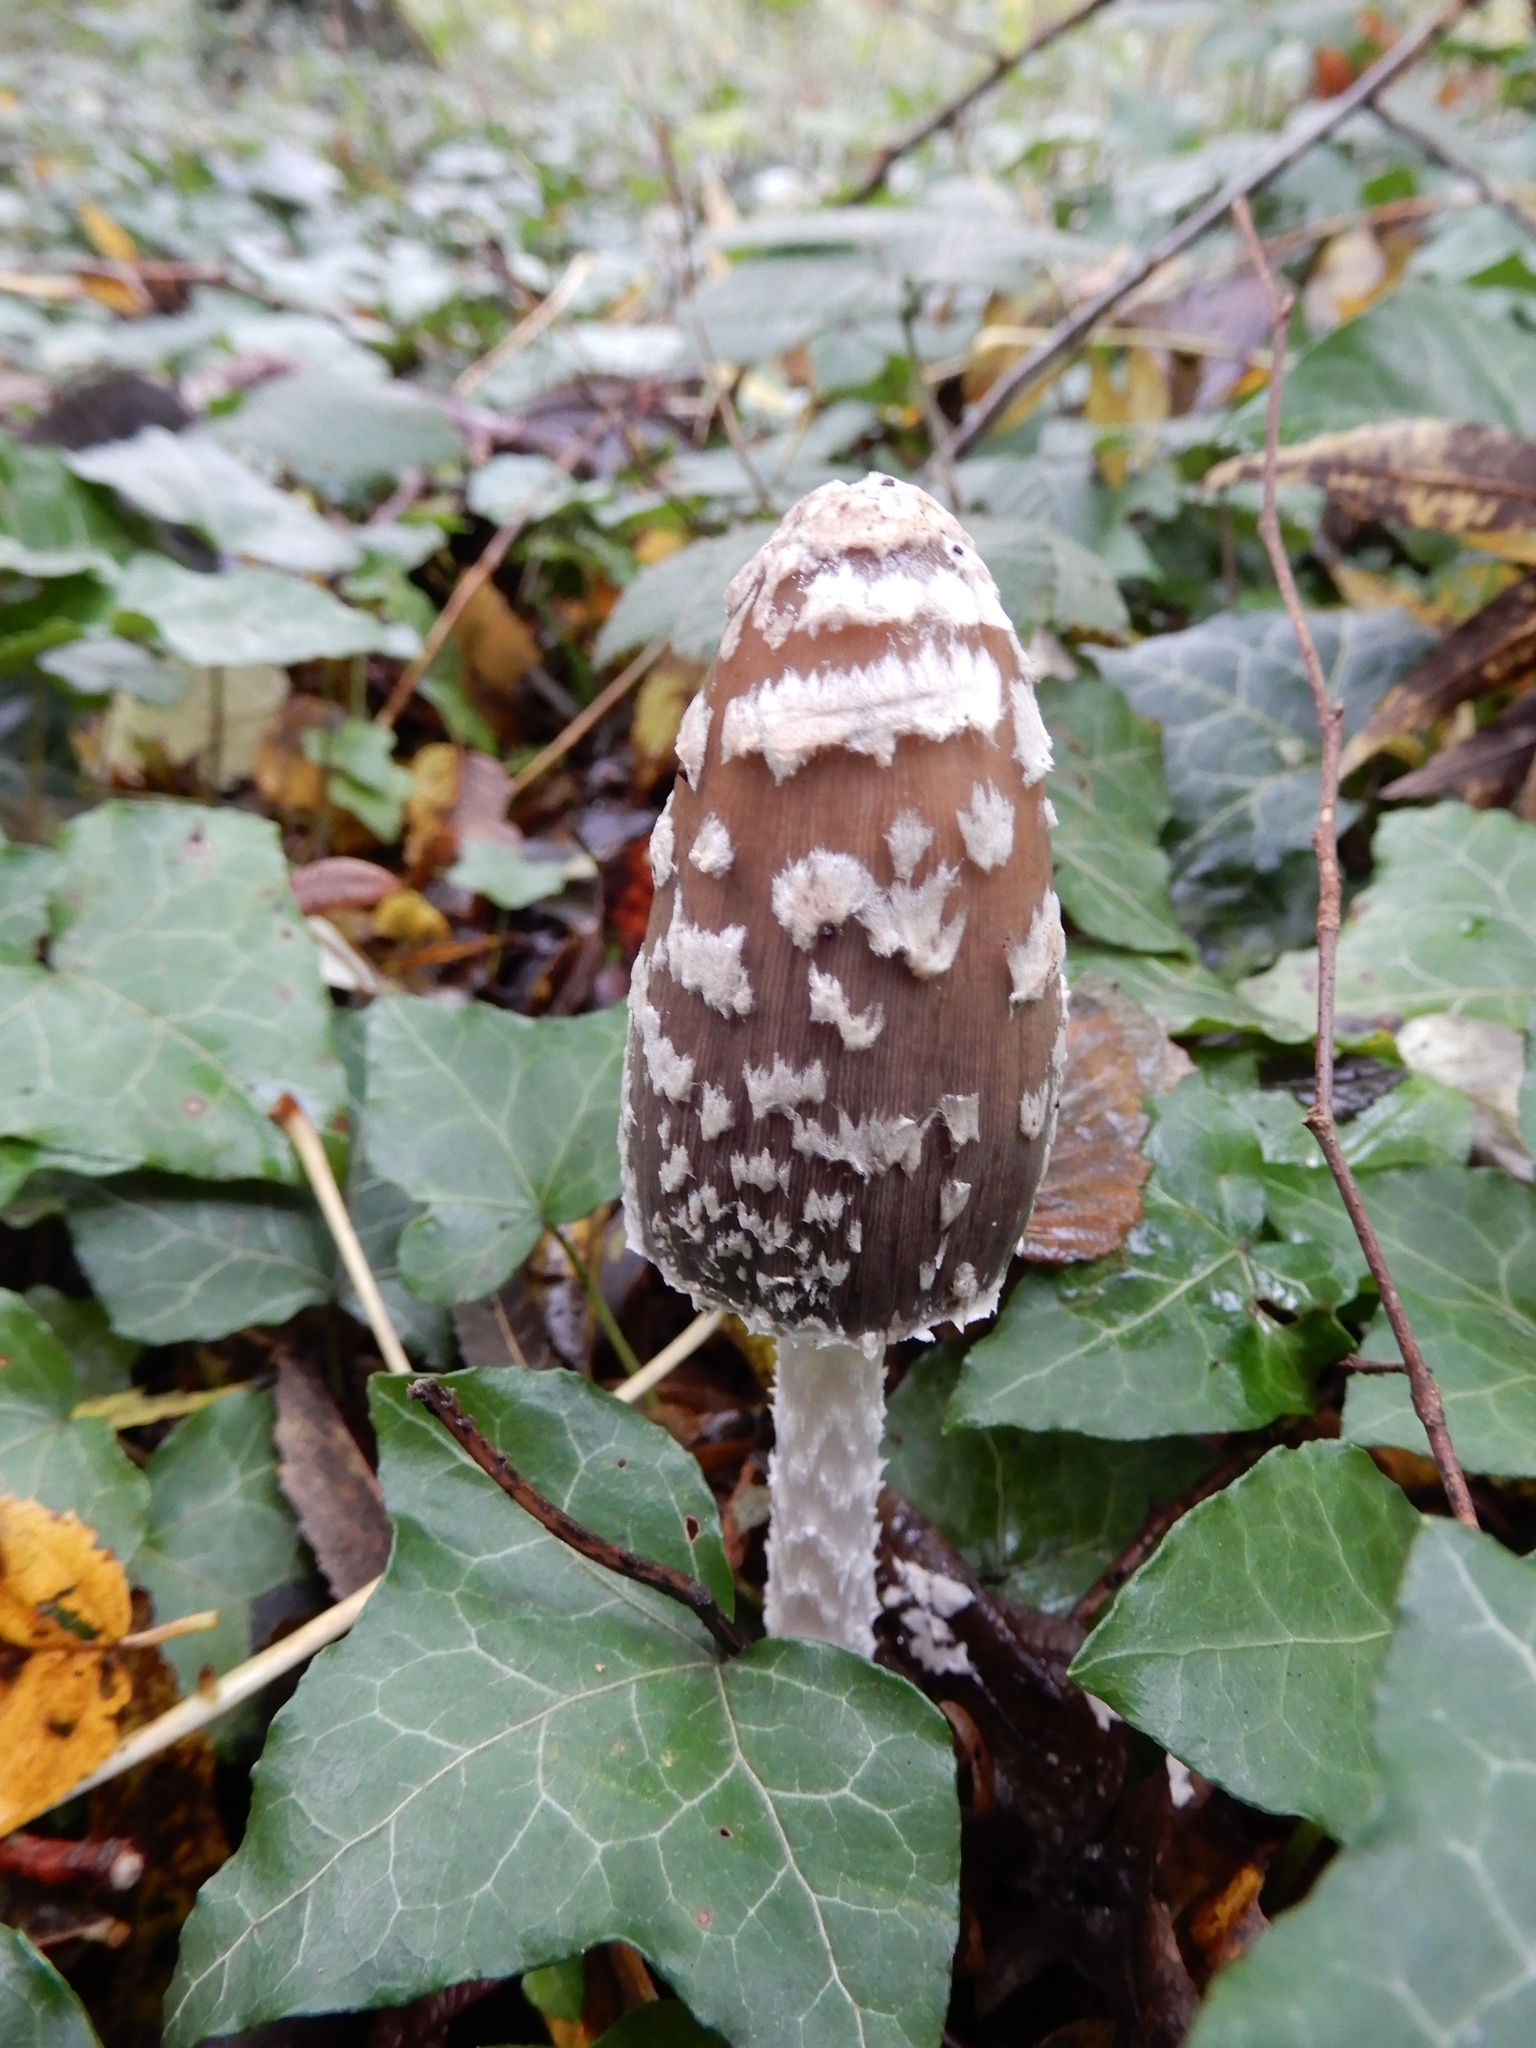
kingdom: Fungi
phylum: Basidiomycota
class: Agaricomycetes
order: Agaricales
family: Psathyrellaceae
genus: Coprinopsis
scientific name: Coprinopsis picacea
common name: Magpie inkcap
